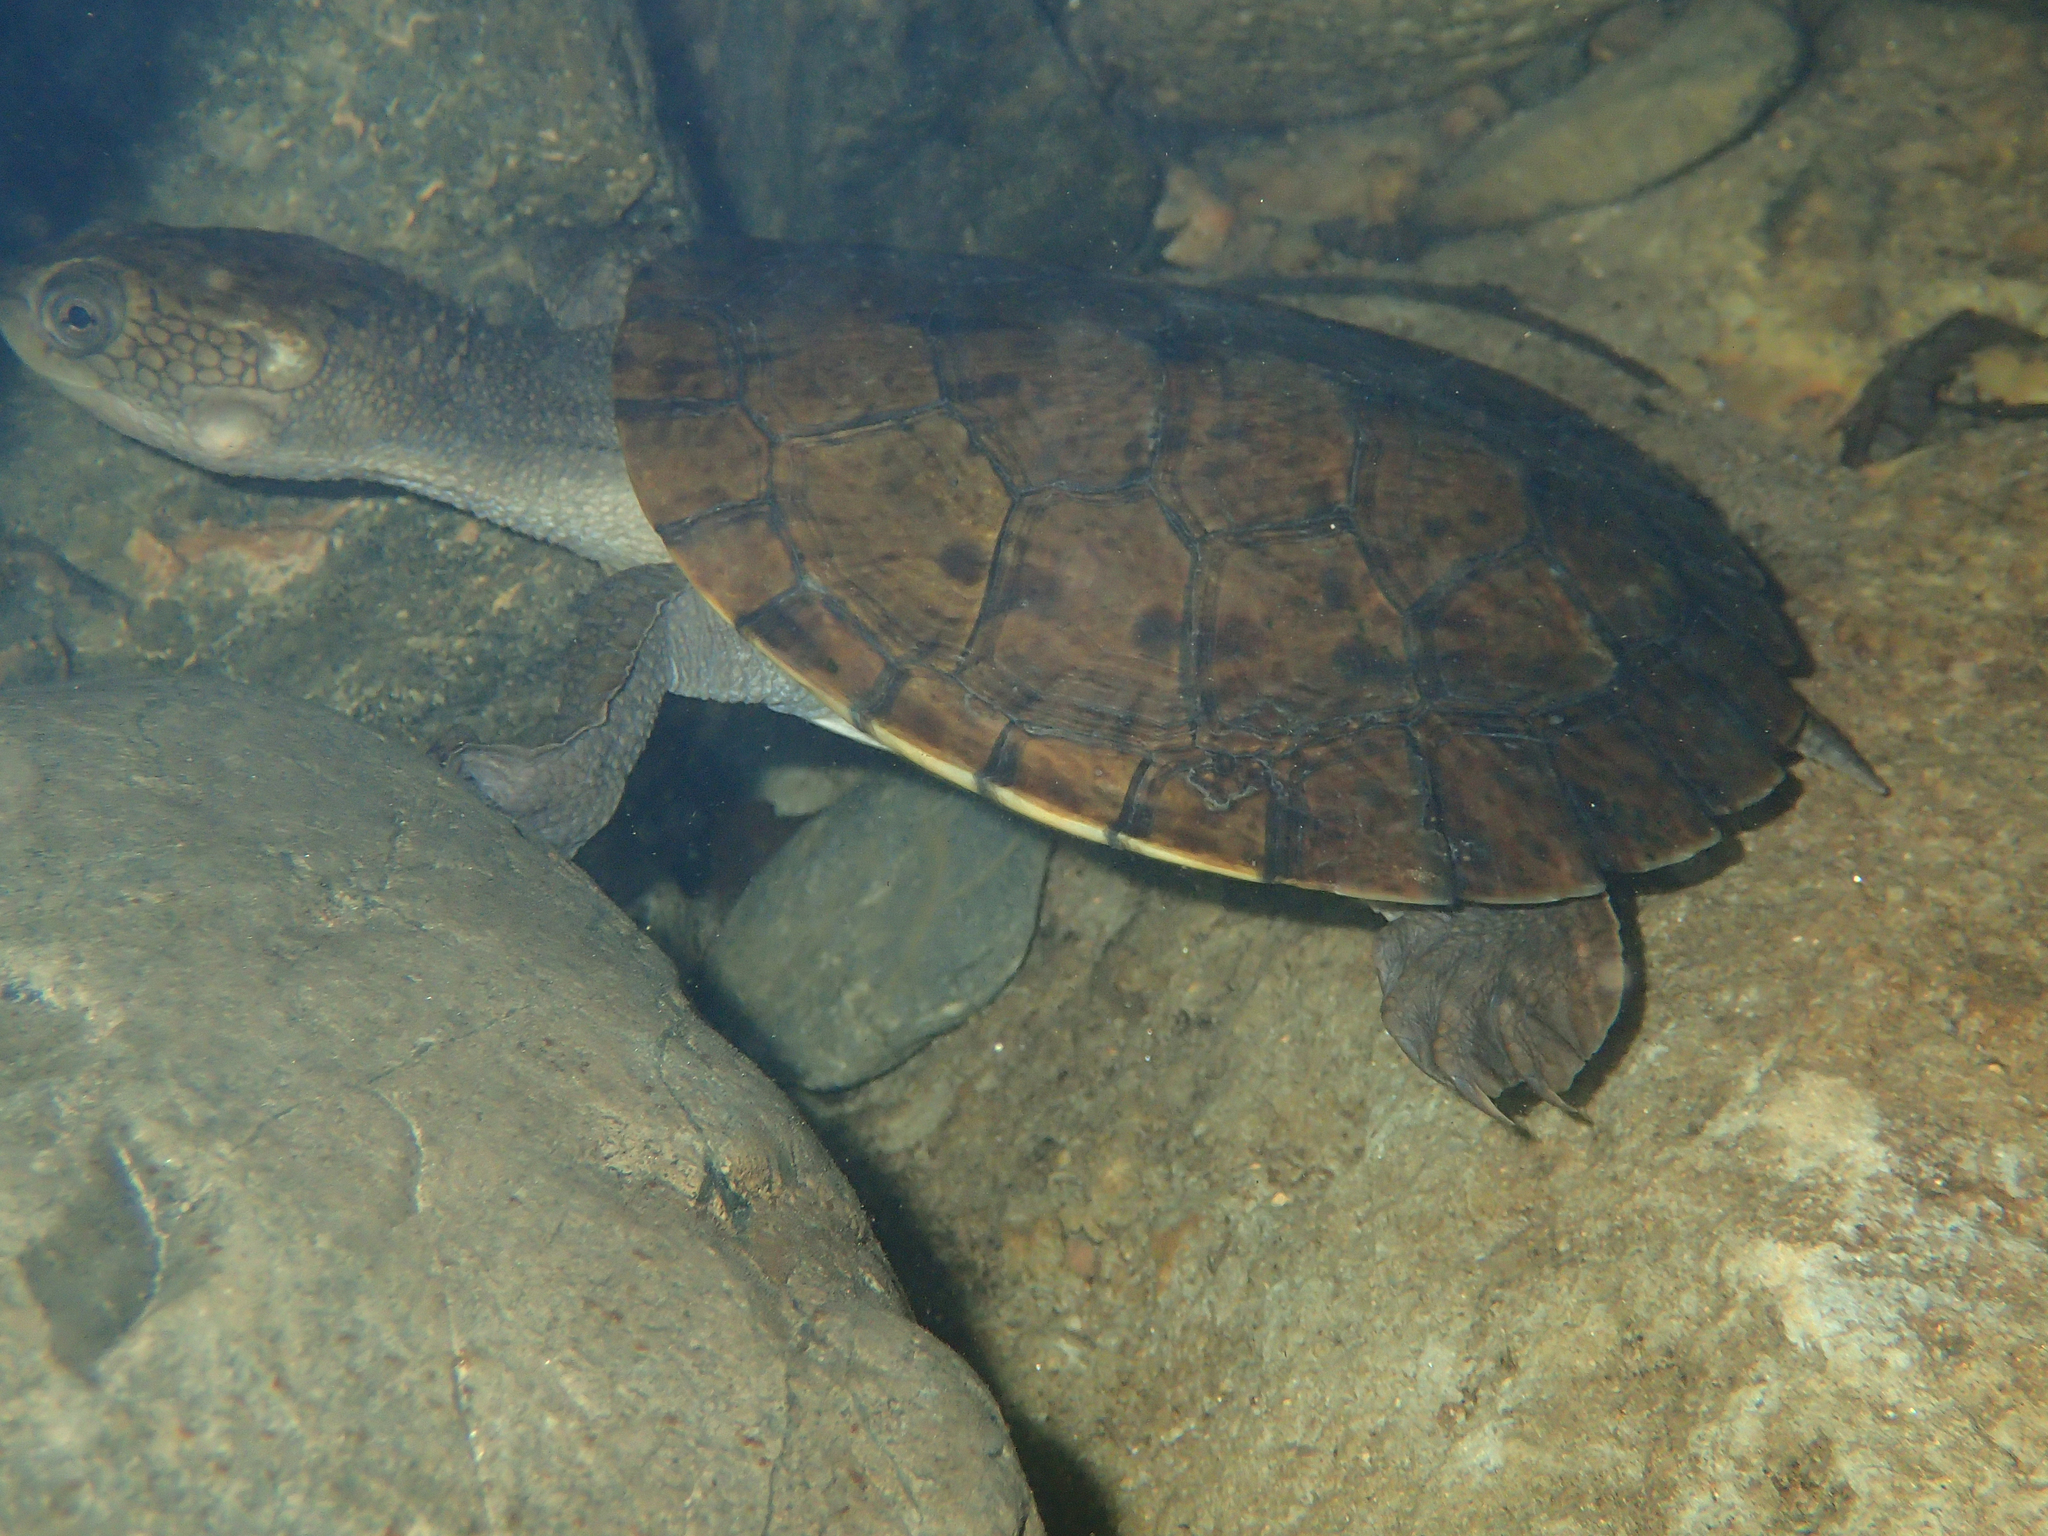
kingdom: Animalia
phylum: Chordata
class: Testudines
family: Chelidae
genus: Myuchelys
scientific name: Myuchelys latisternum
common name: Serrated snapping turtle
